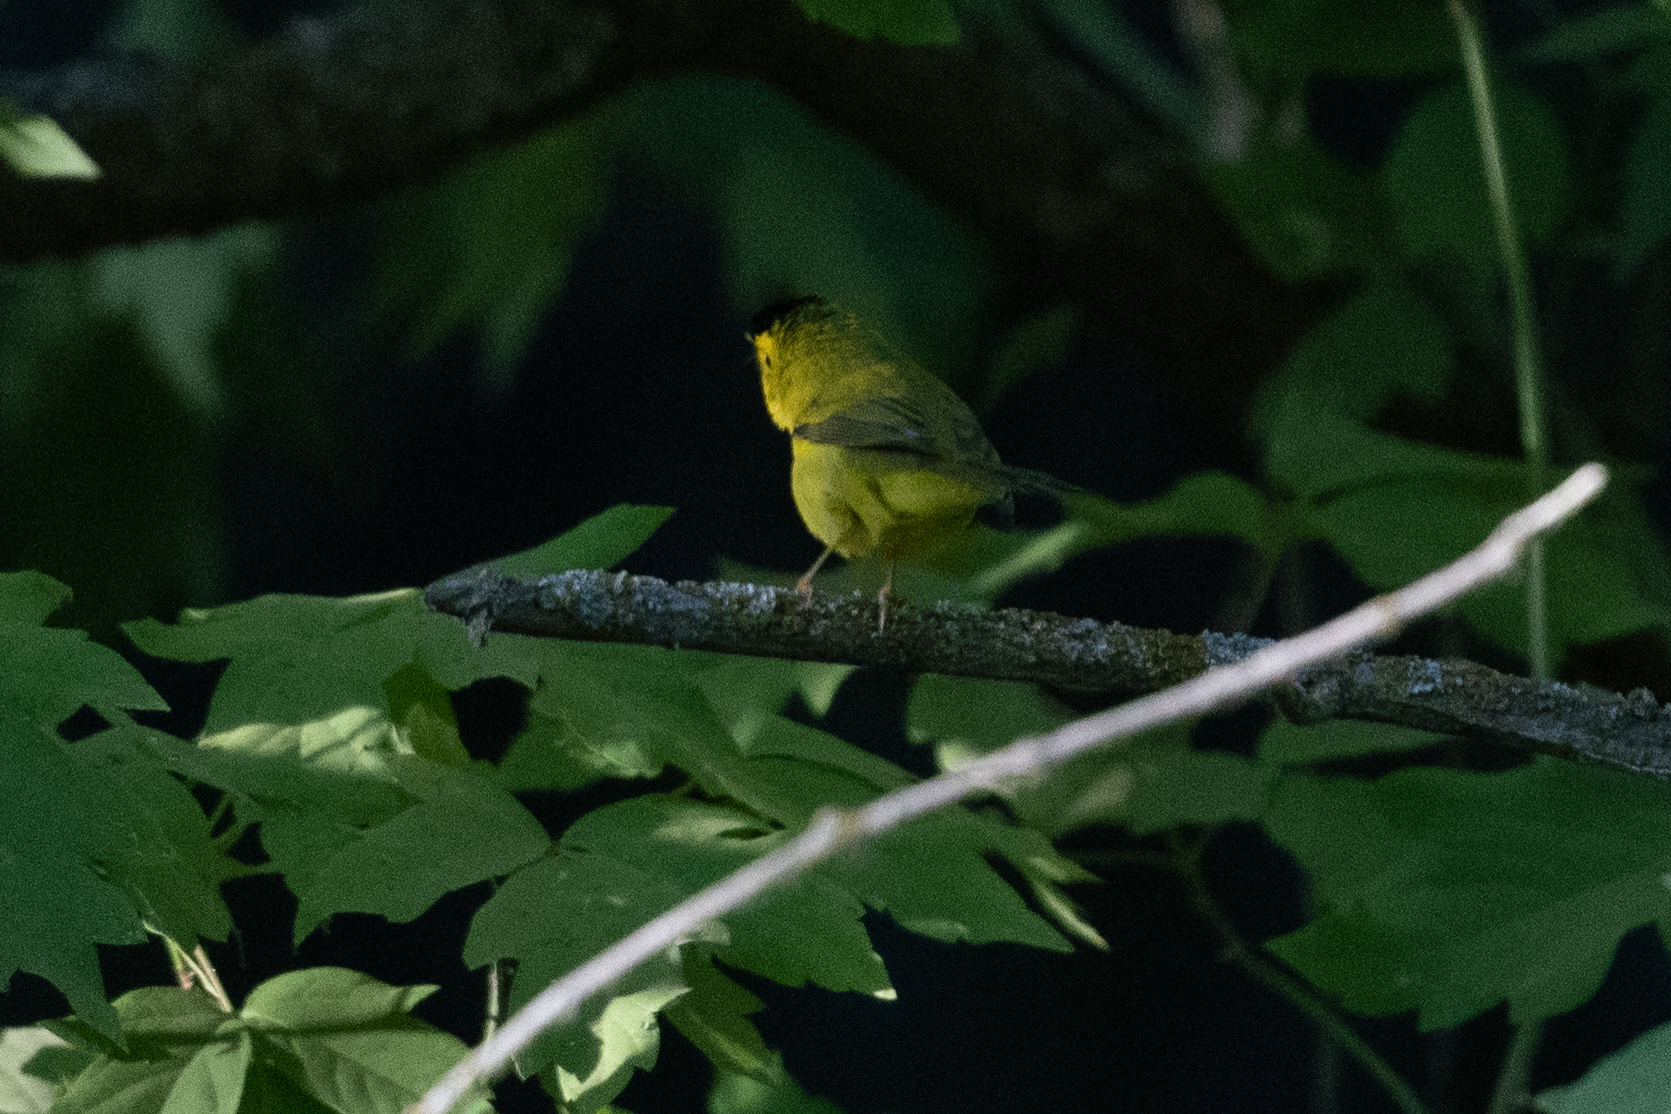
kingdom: Animalia
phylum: Chordata
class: Aves
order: Passeriformes
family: Parulidae
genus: Cardellina
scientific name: Cardellina pusilla
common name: Wilson's warbler
